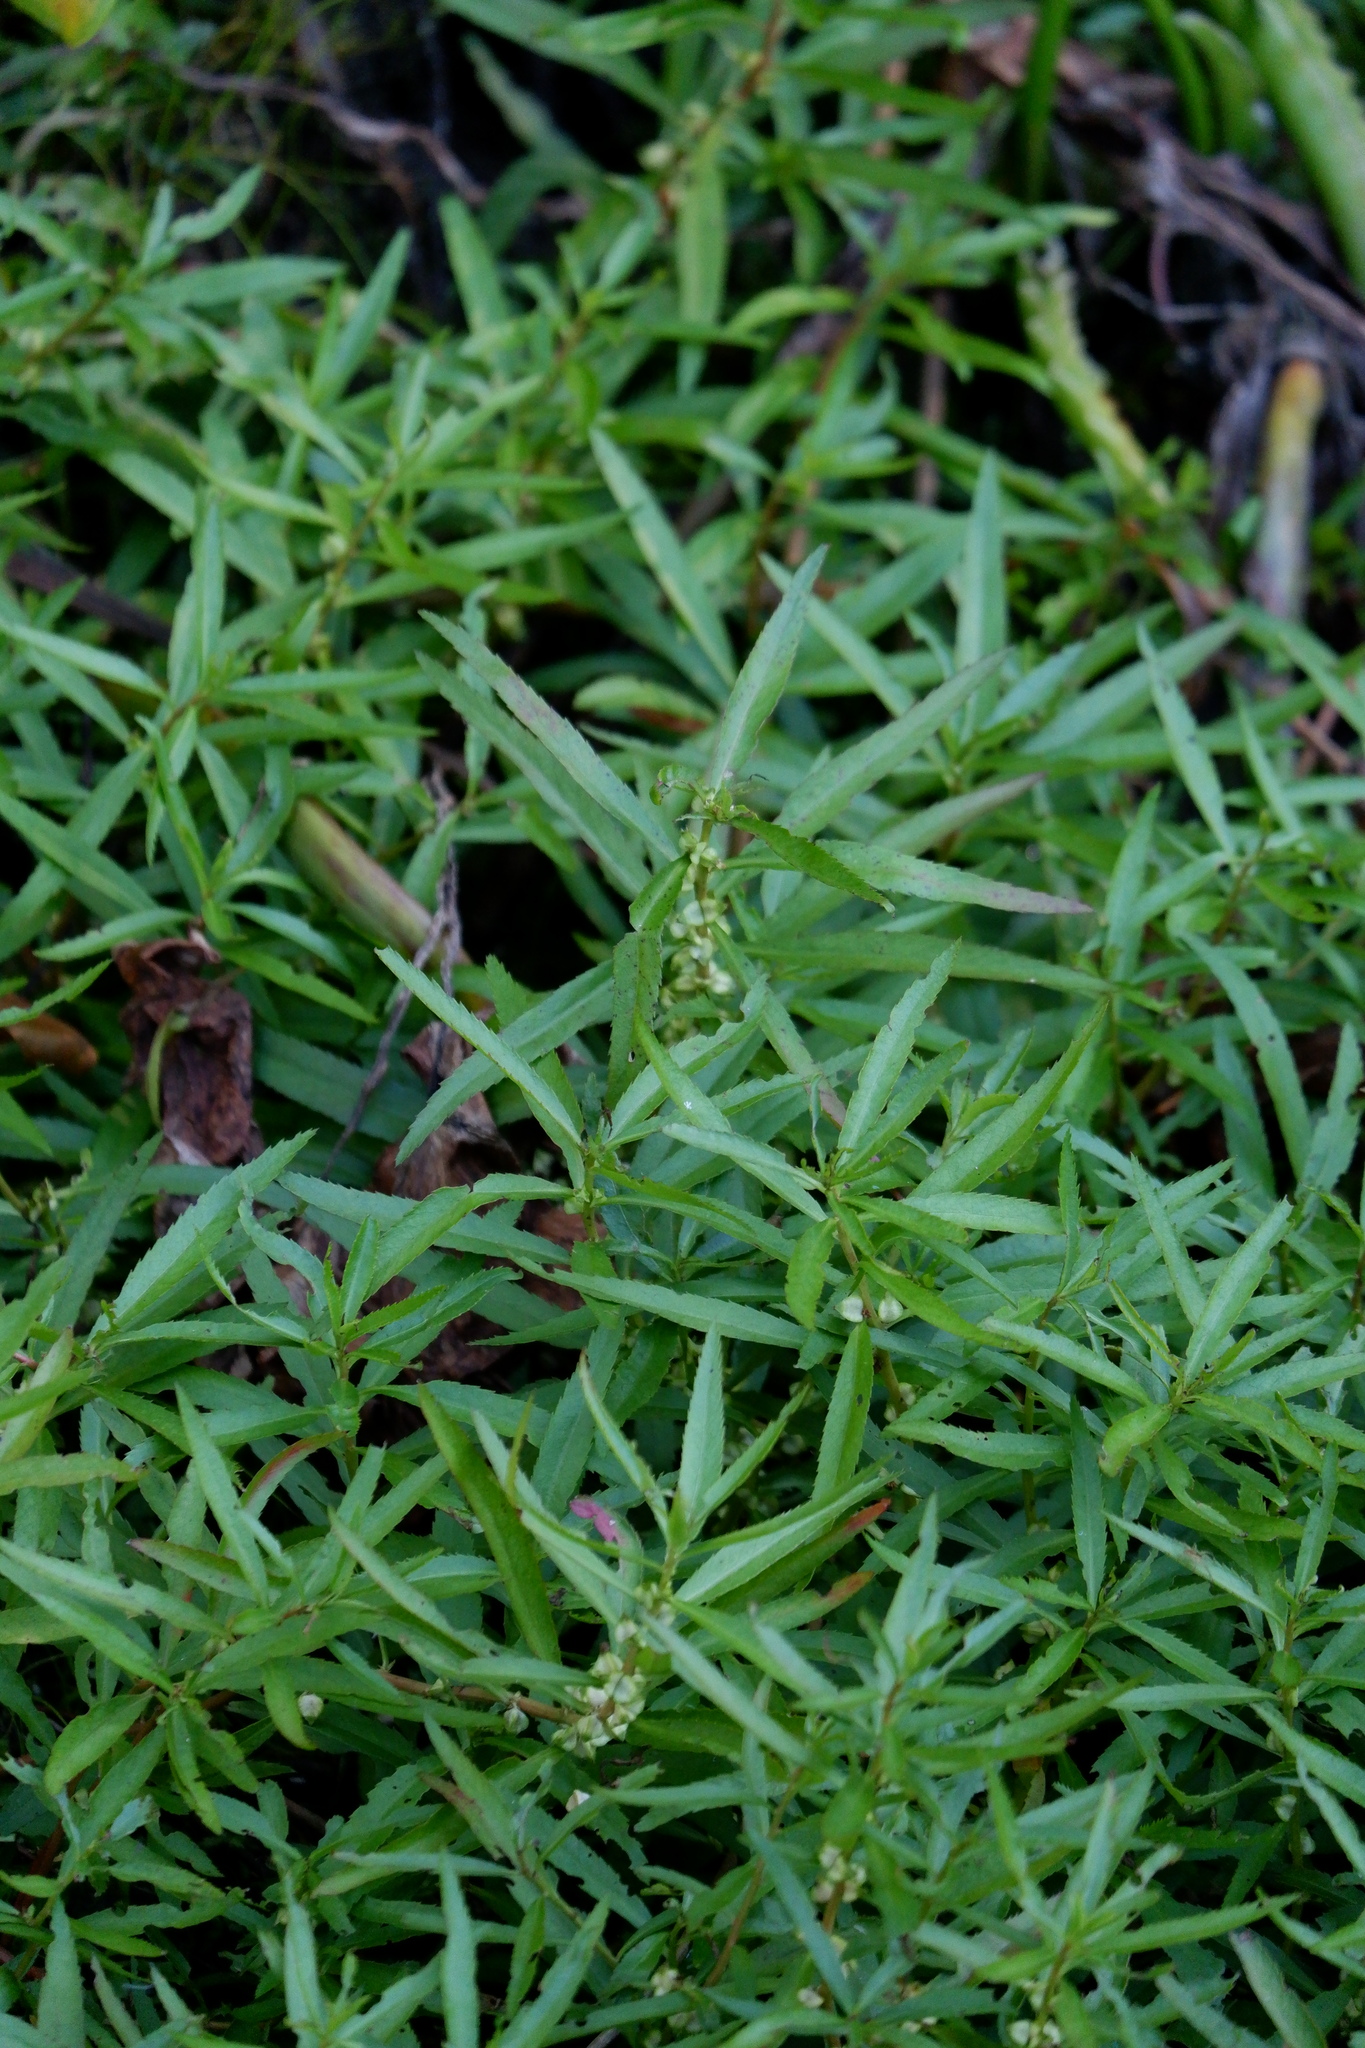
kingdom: Plantae
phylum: Tracheophyta
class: Magnoliopsida
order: Saxifragales
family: Haloragaceae
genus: Proserpinaca
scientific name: Proserpinaca palustris
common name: Marsh mermaidweed
